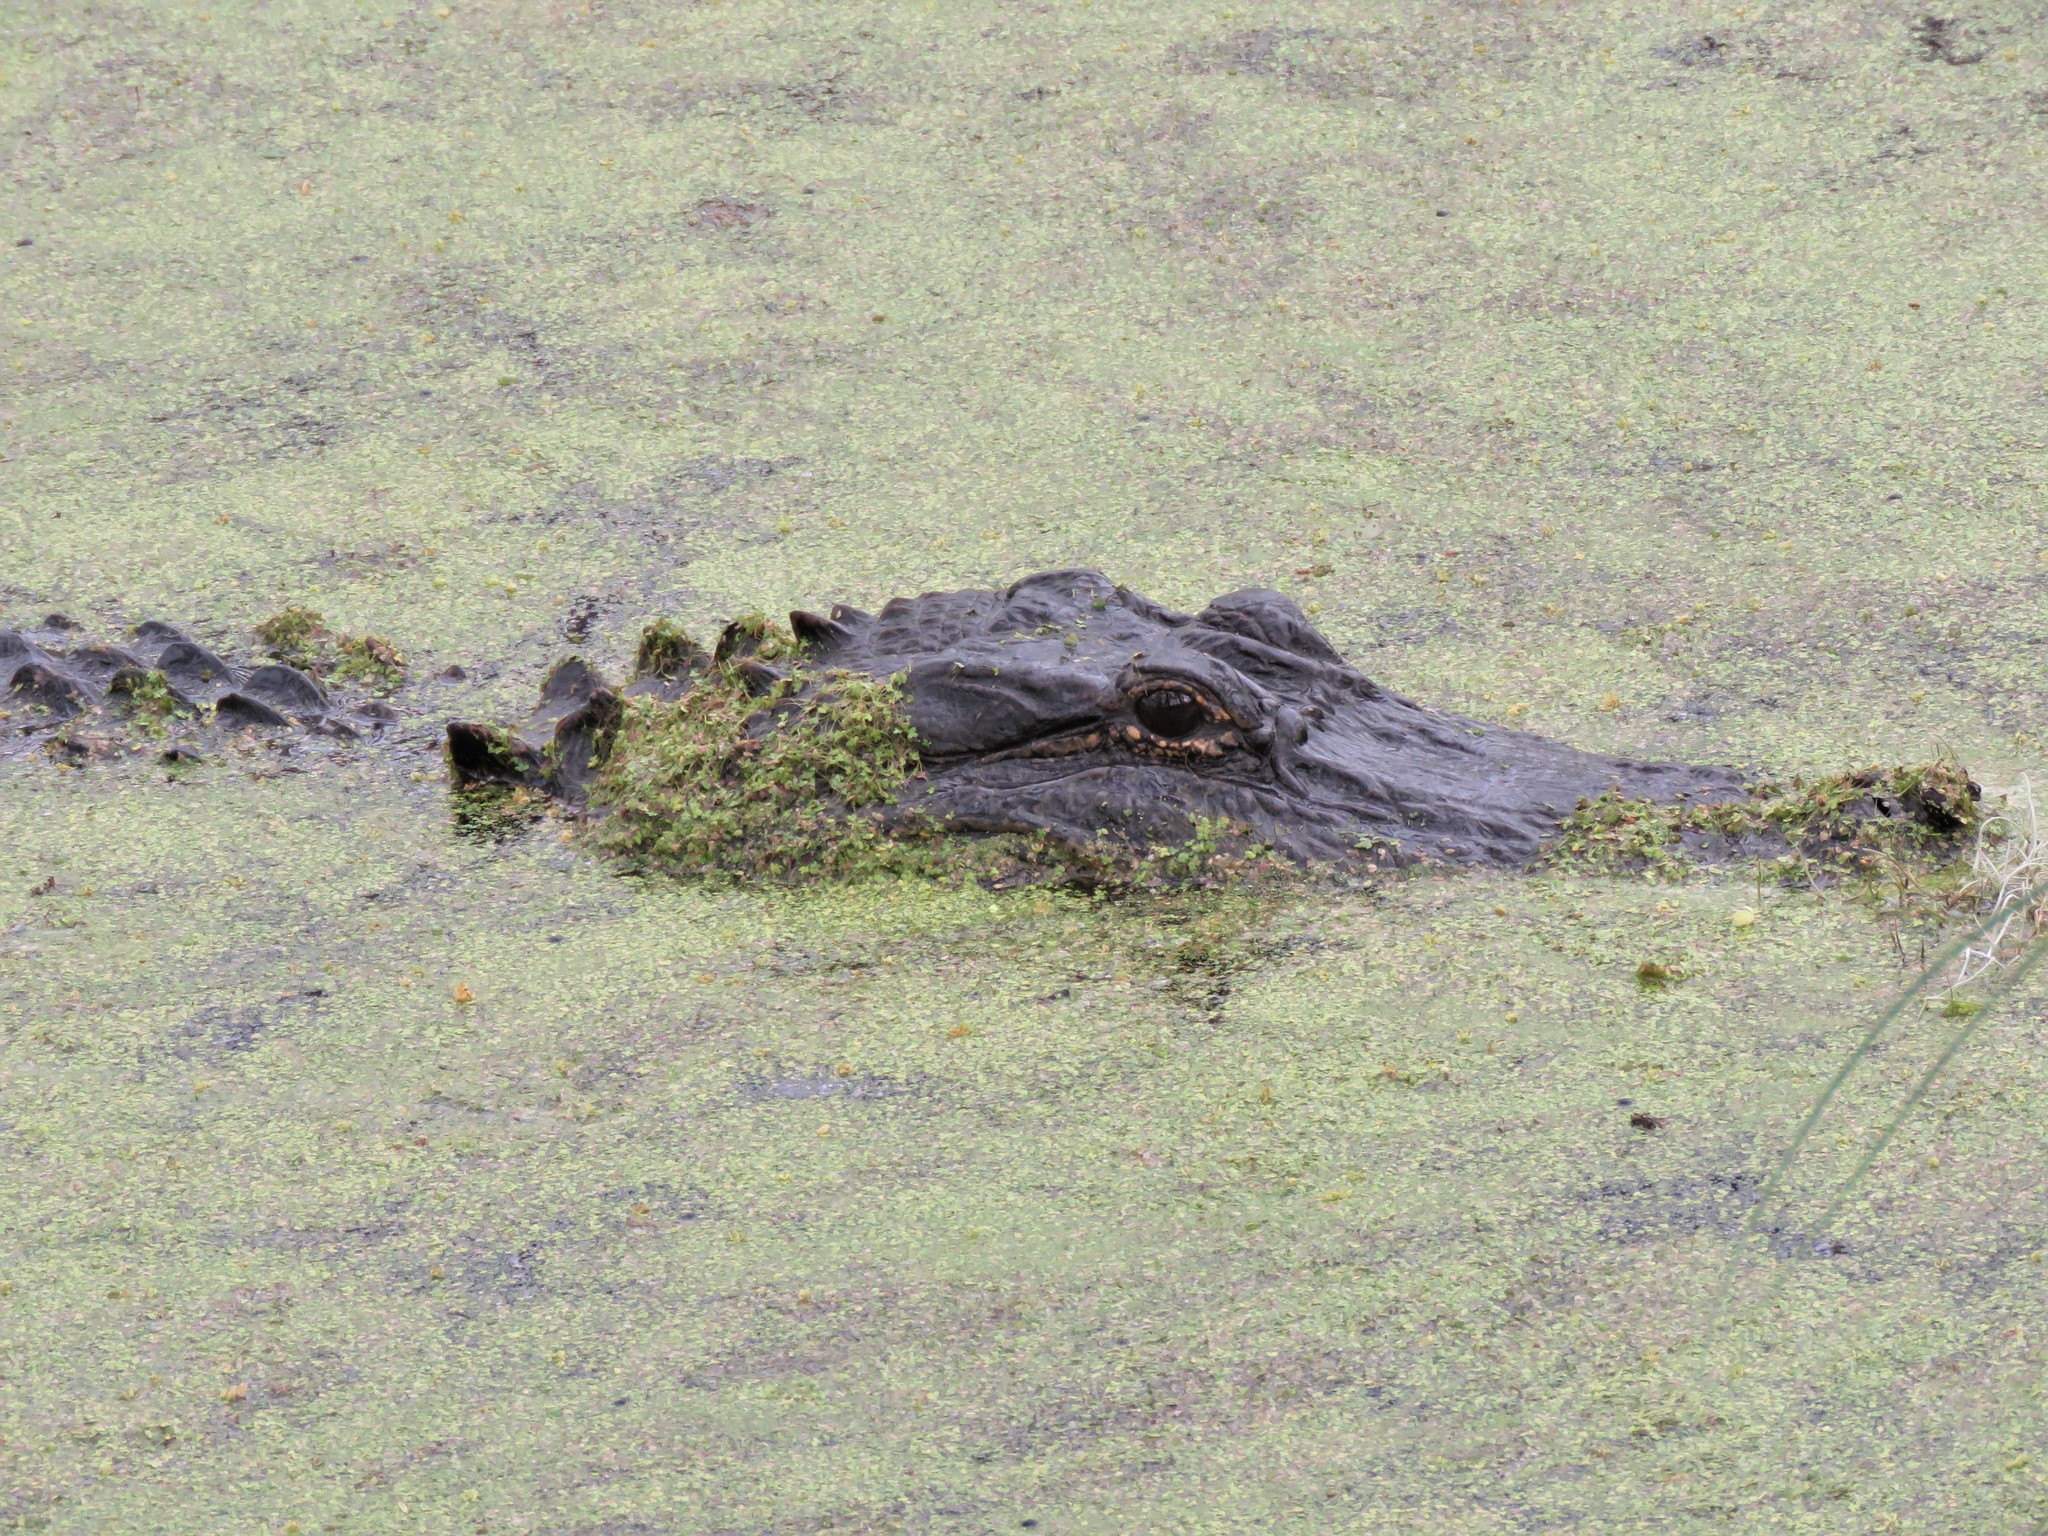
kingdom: Animalia
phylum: Chordata
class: Crocodylia
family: Alligatoridae
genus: Alligator
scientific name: Alligator mississippiensis
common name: American alligator
